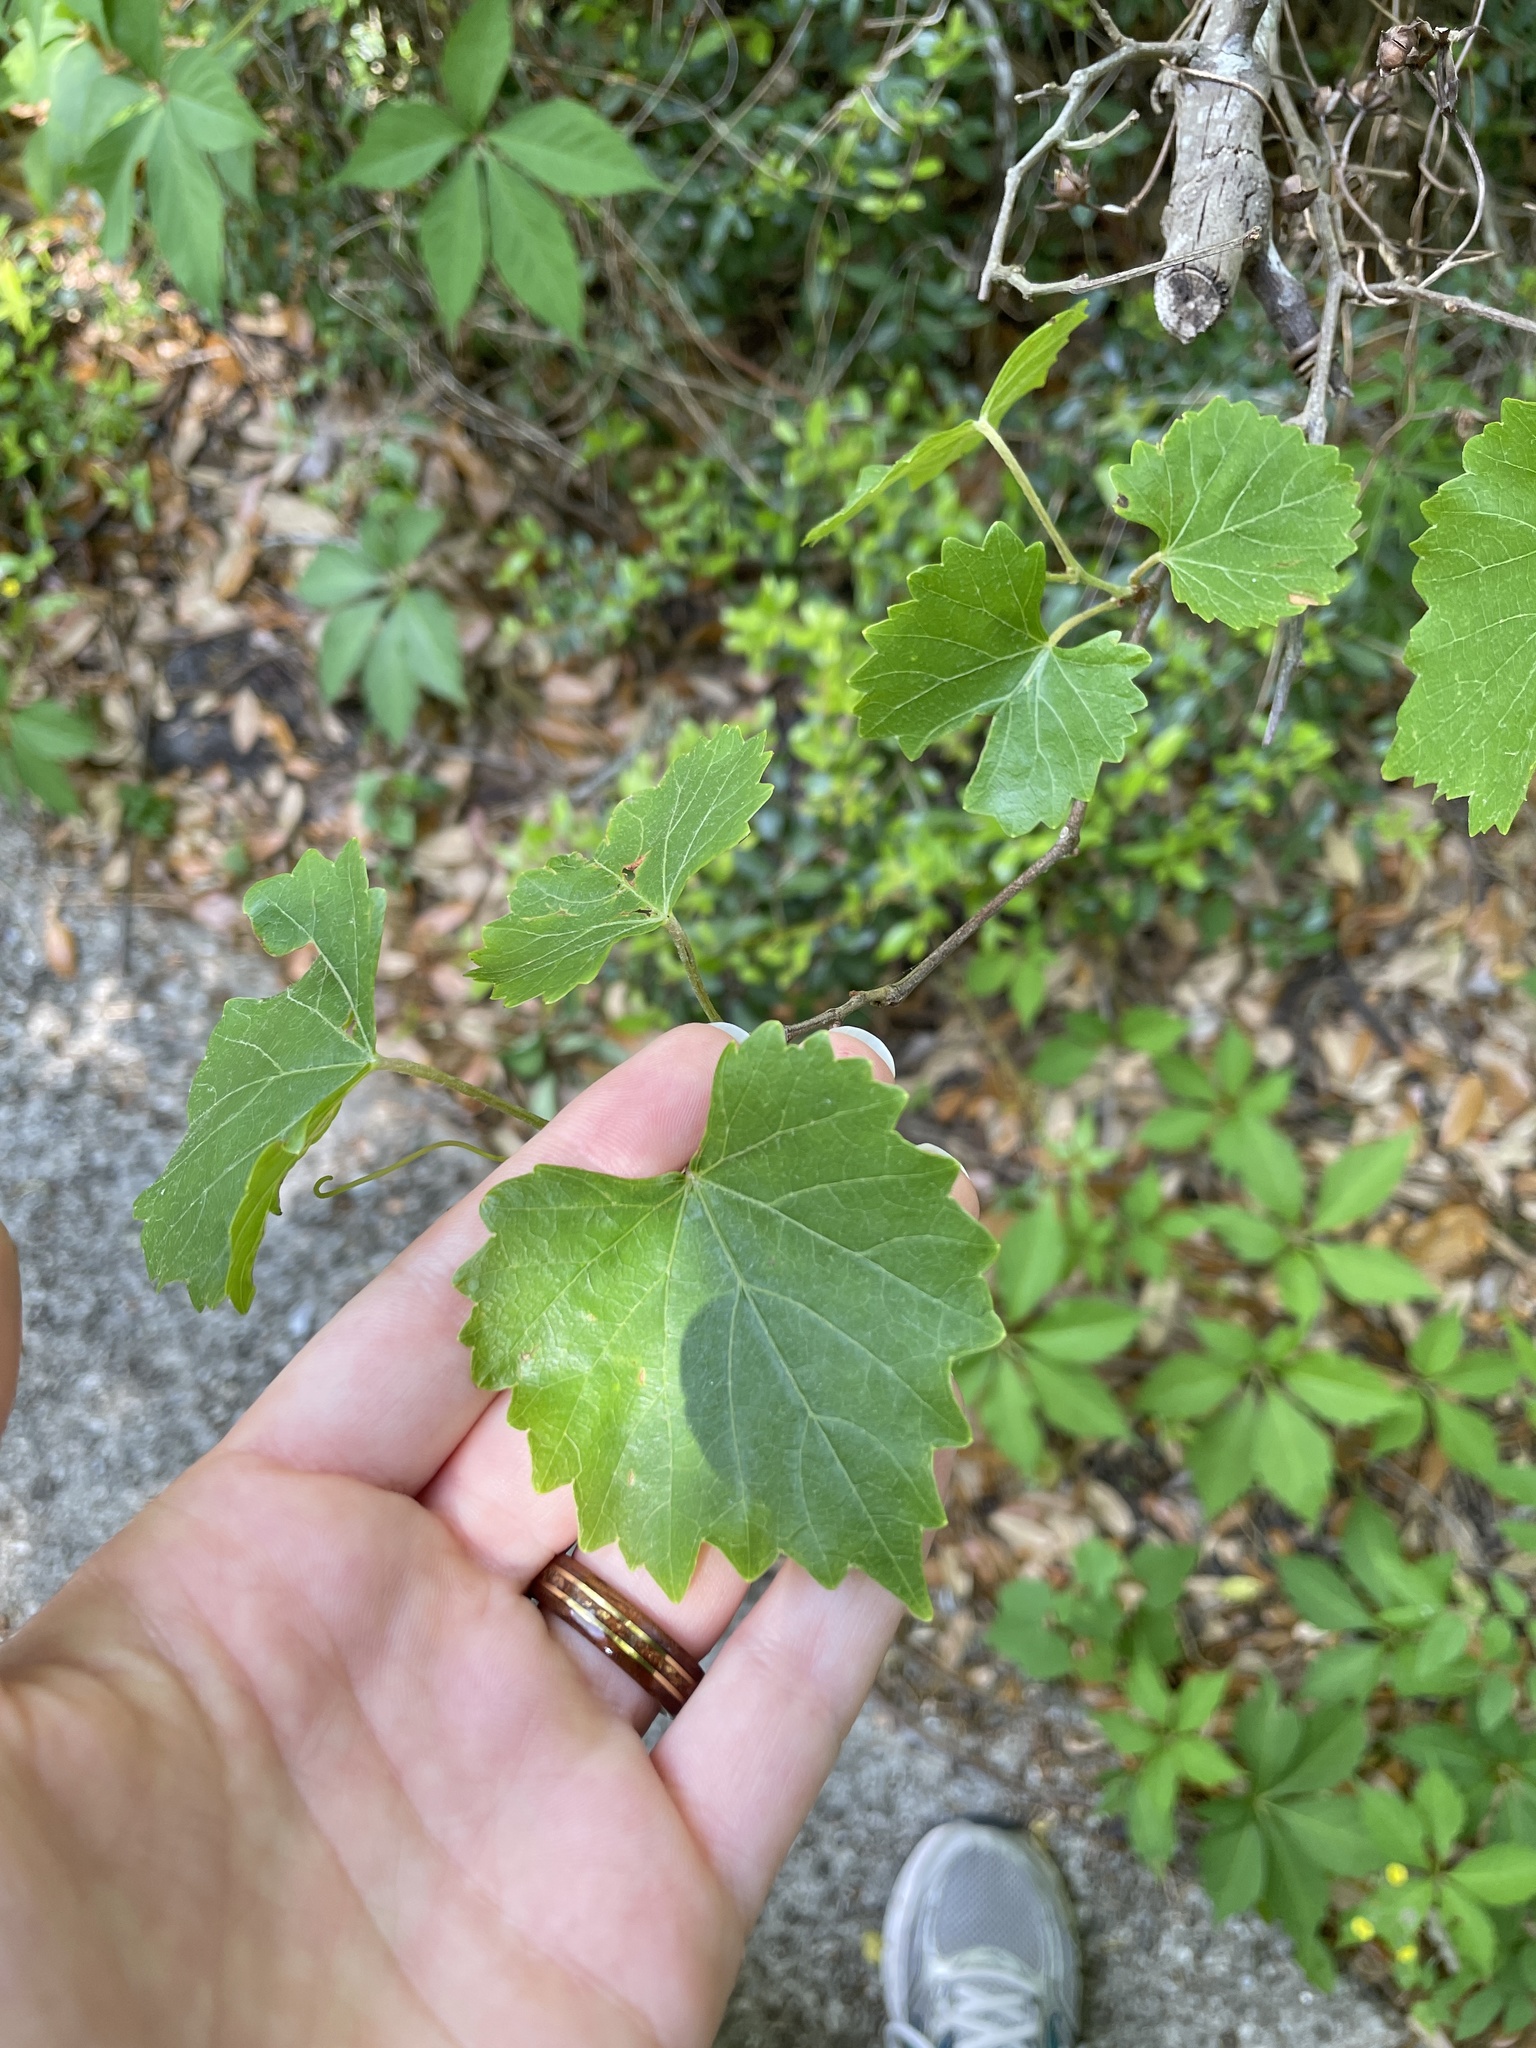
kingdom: Plantae
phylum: Tracheophyta
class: Magnoliopsida
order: Vitales
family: Vitaceae
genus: Vitis
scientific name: Vitis rotundifolia
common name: Muscadine grape
